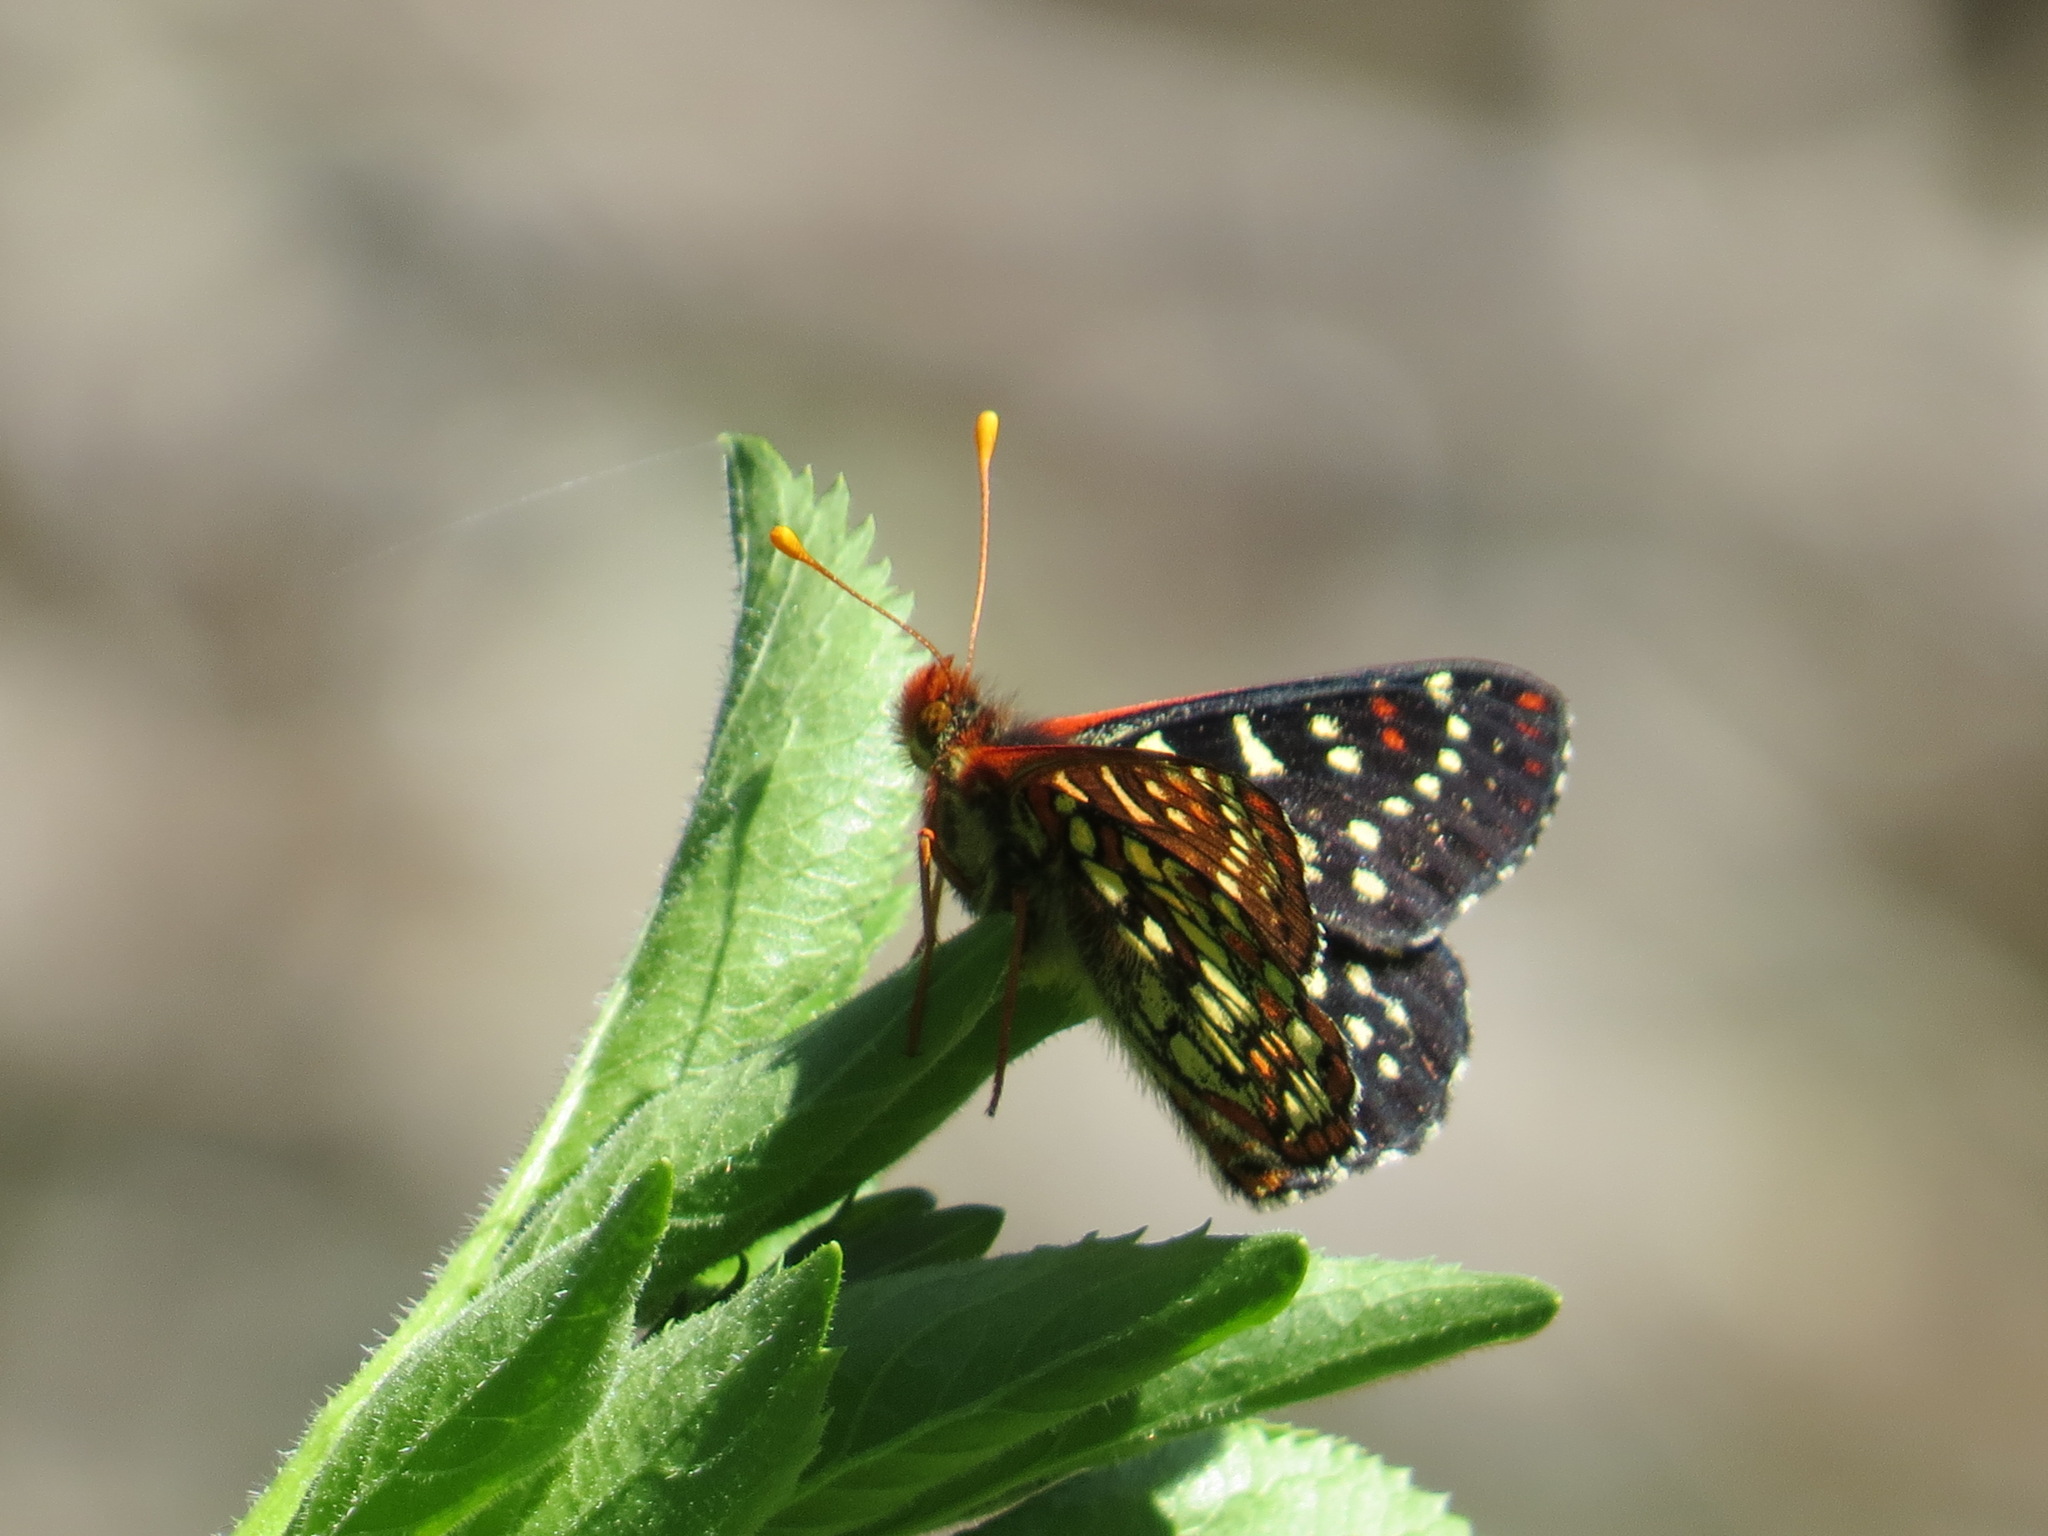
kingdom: Animalia
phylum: Arthropoda
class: Insecta
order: Lepidoptera
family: Nymphalidae
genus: Occidryas
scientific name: Occidryas chalcedona
